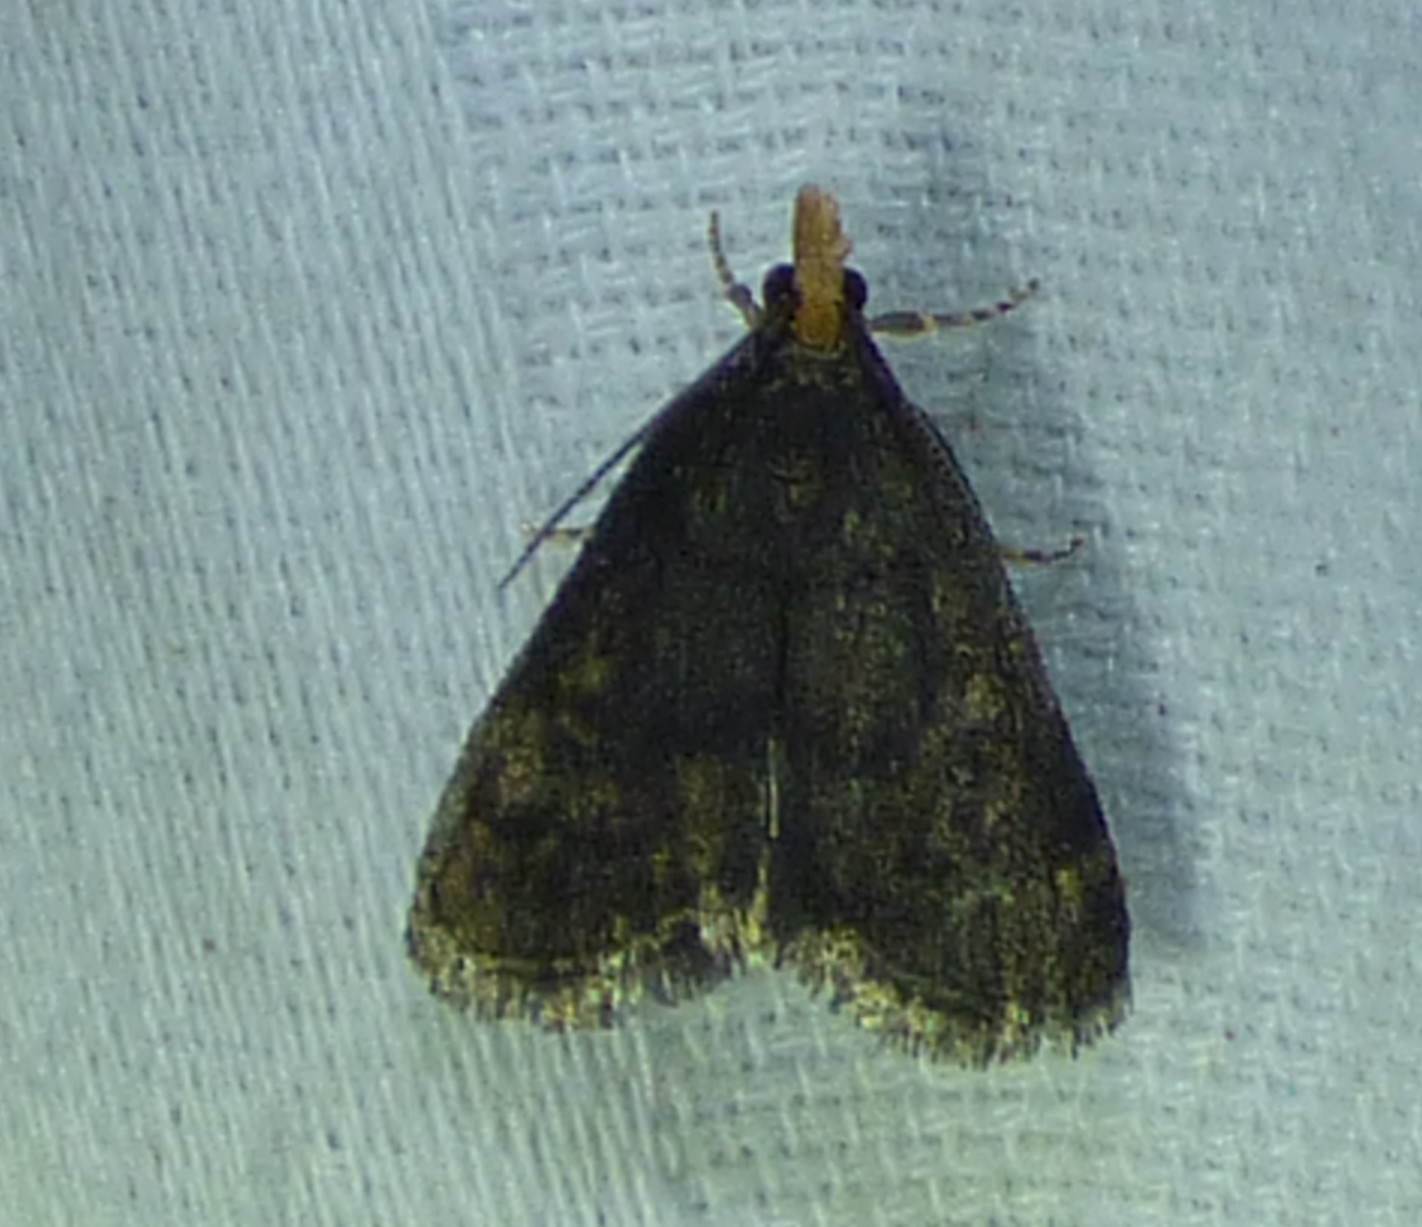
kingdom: Animalia
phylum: Arthropoda
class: Insecta
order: Lepidoptera
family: Crambidae
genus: Pyrausta
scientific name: Pyrausta merrickalis
